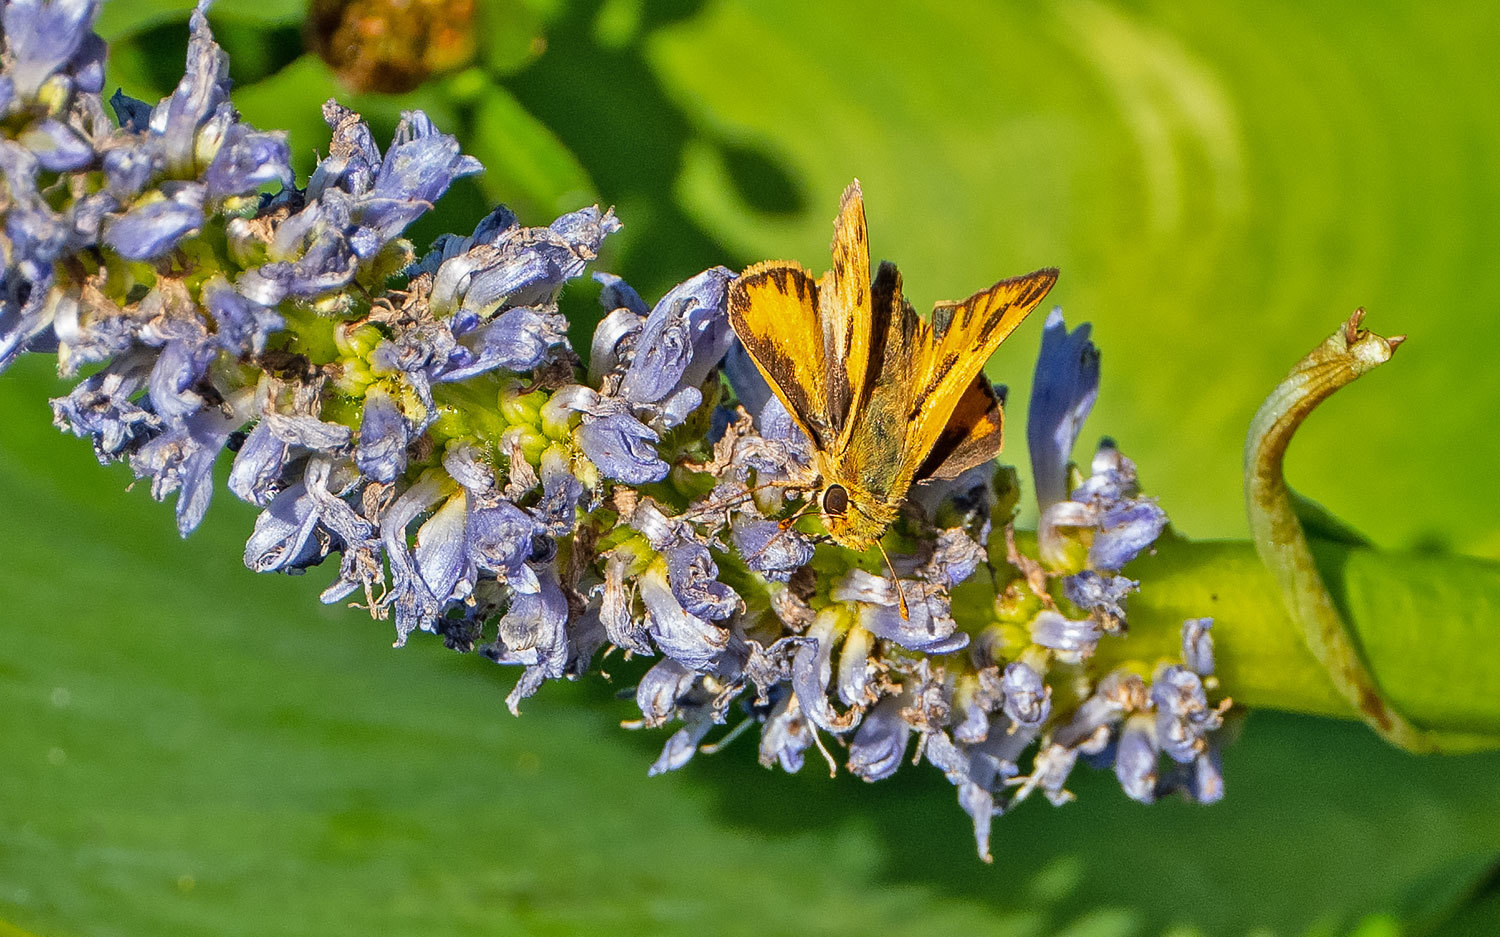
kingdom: Animalia
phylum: Arthropoda
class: Insecta
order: Lepidoptera
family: Hesperiidae
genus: Hylephila
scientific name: Hylephila phyleus
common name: Fiery skipper
